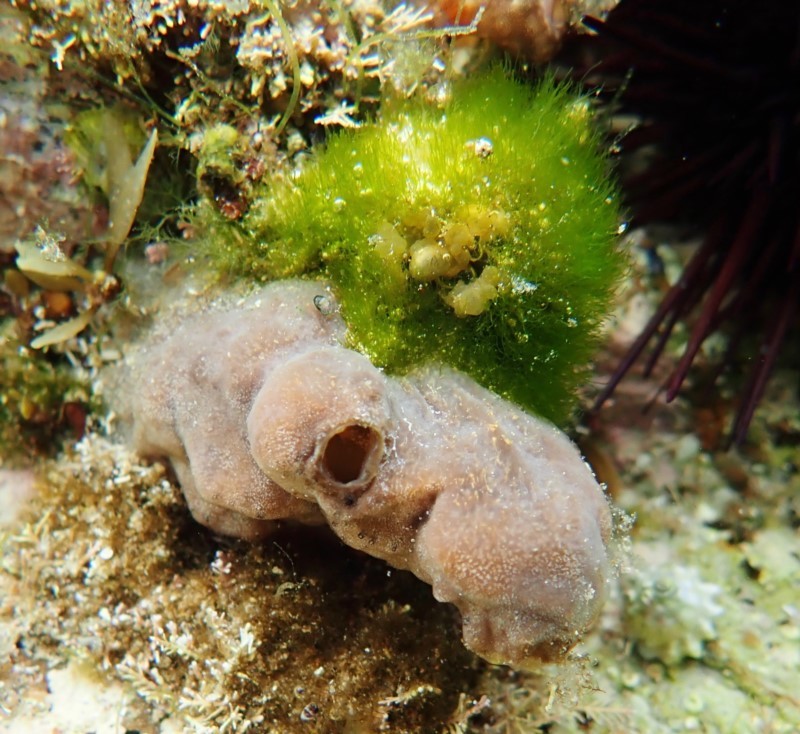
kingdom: Animalia
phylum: Chordata
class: Ascidiacea
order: Phlebobranchia
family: Ascidiidae
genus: Phallusia
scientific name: Phallusia obesa
